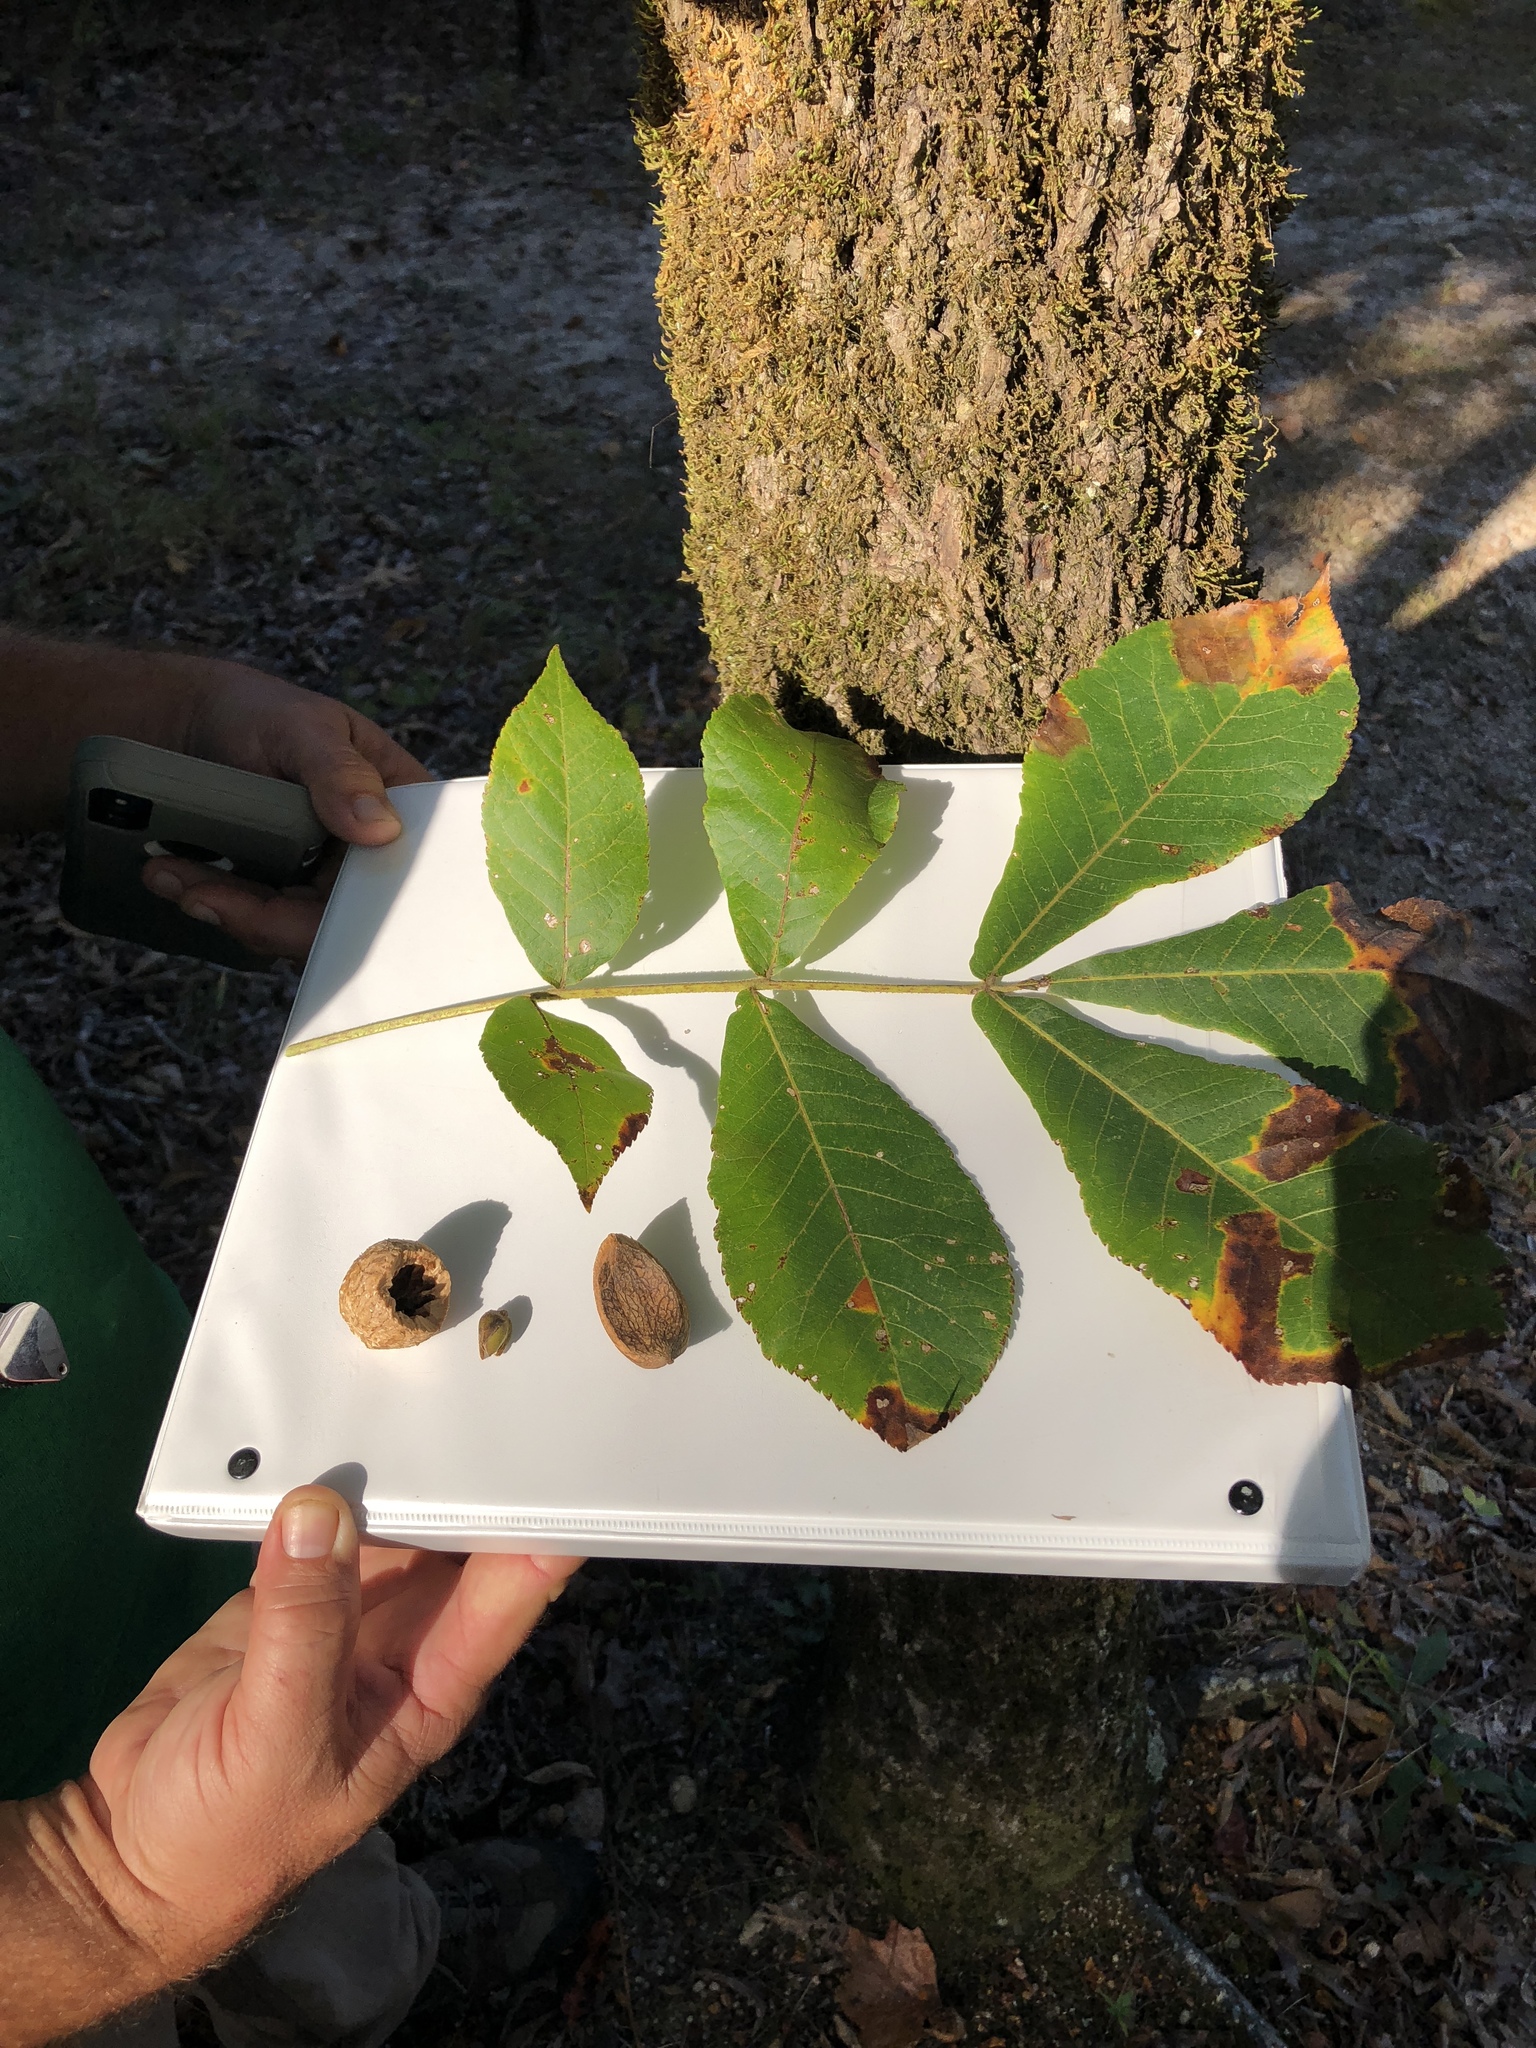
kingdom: Plantae
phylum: Tracheophyta
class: Magnoliopsida
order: Fagales
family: Juglandaceae
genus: Carya
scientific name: Carya alba
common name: Mockernut hickory
